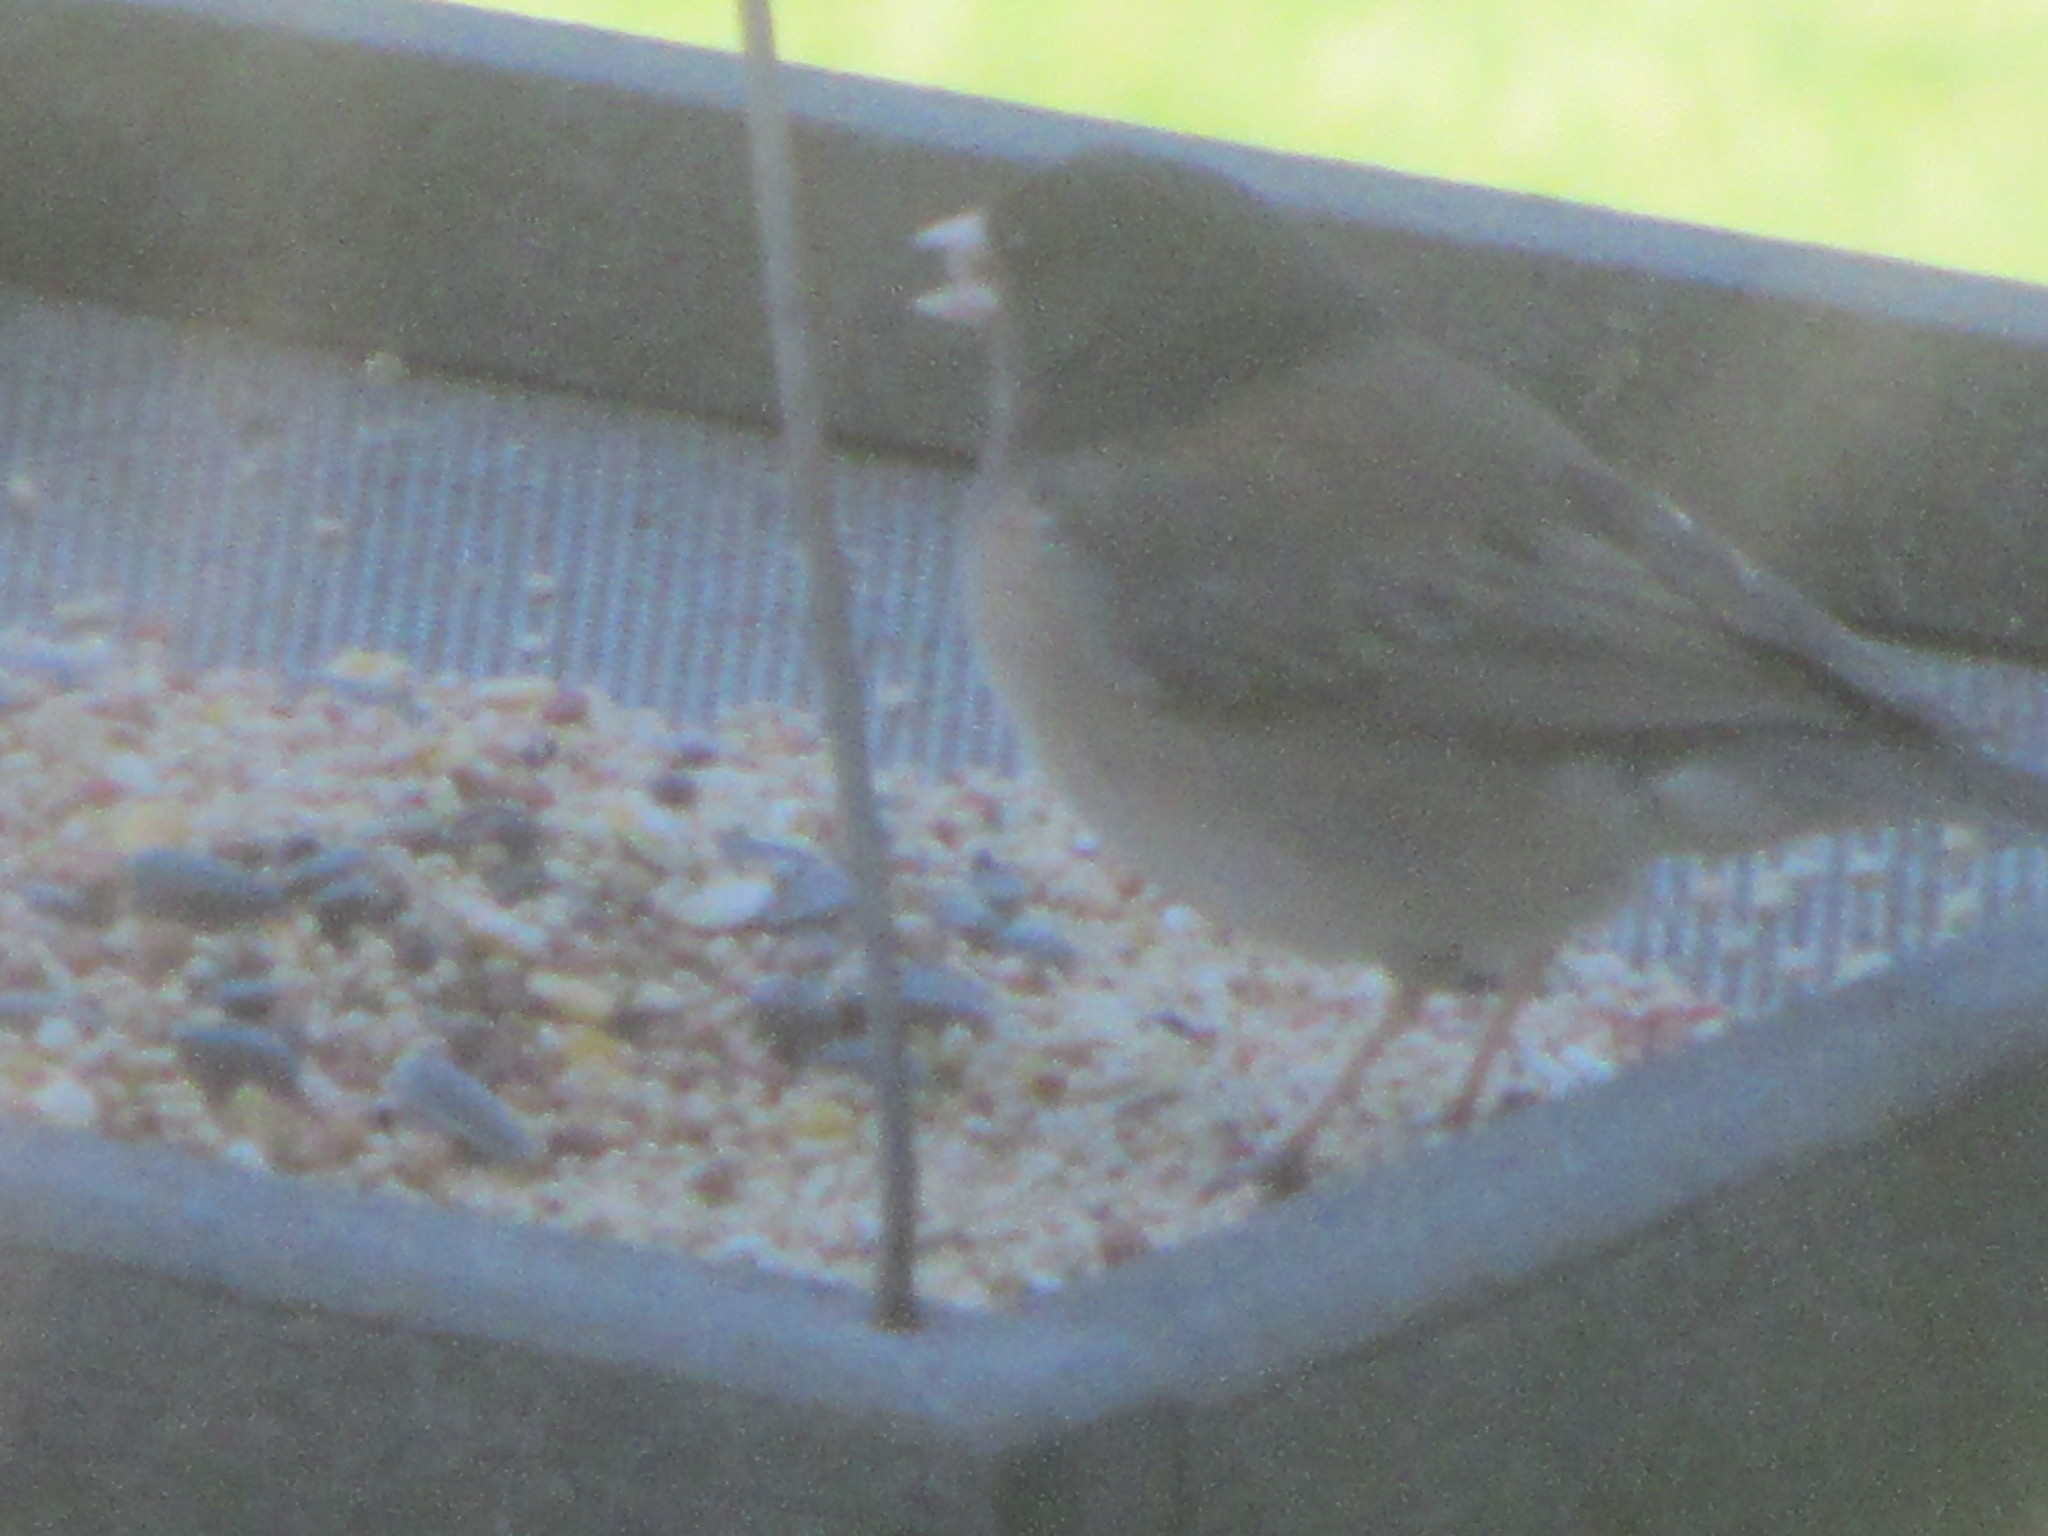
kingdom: Animalia
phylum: Chordata
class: Aves
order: Passeriformes
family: Passerellidae
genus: Junco
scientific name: Junco hyemalis
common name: Dark-eyed junco
